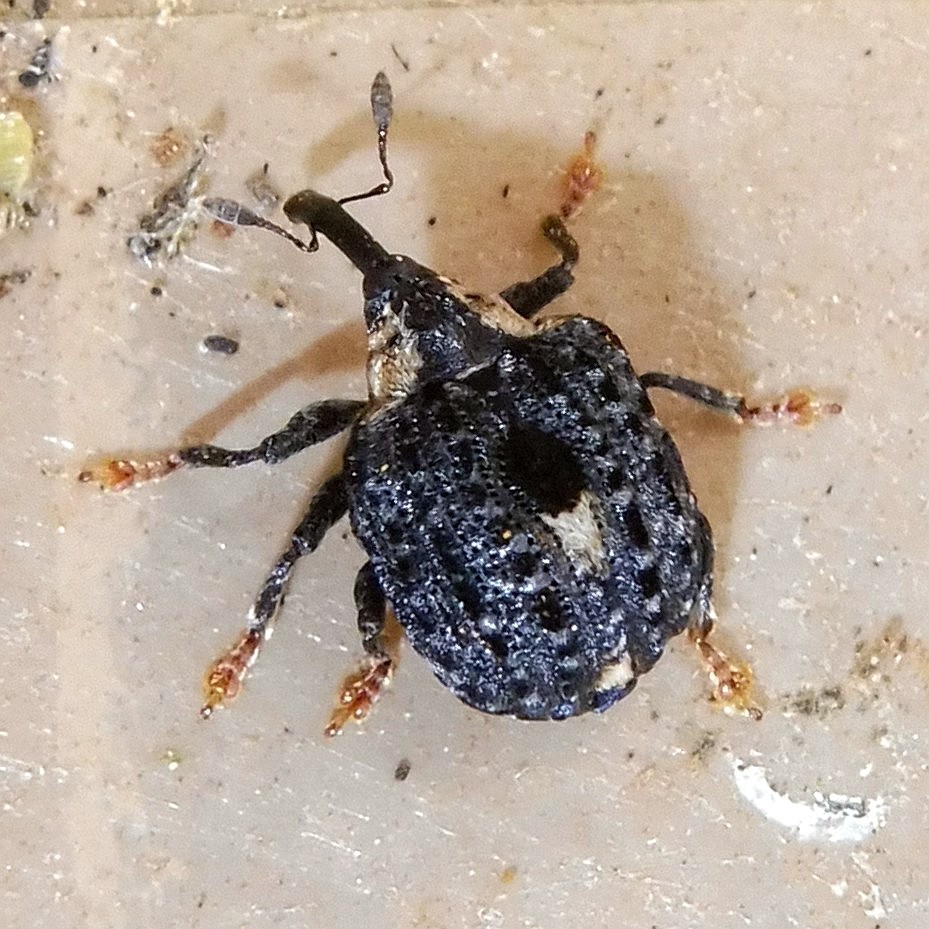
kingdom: Animalia
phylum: Arthropoda
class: Insecta
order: Coleoptera
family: Curculionidae
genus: Cionus
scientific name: Cionus tuberculosus
